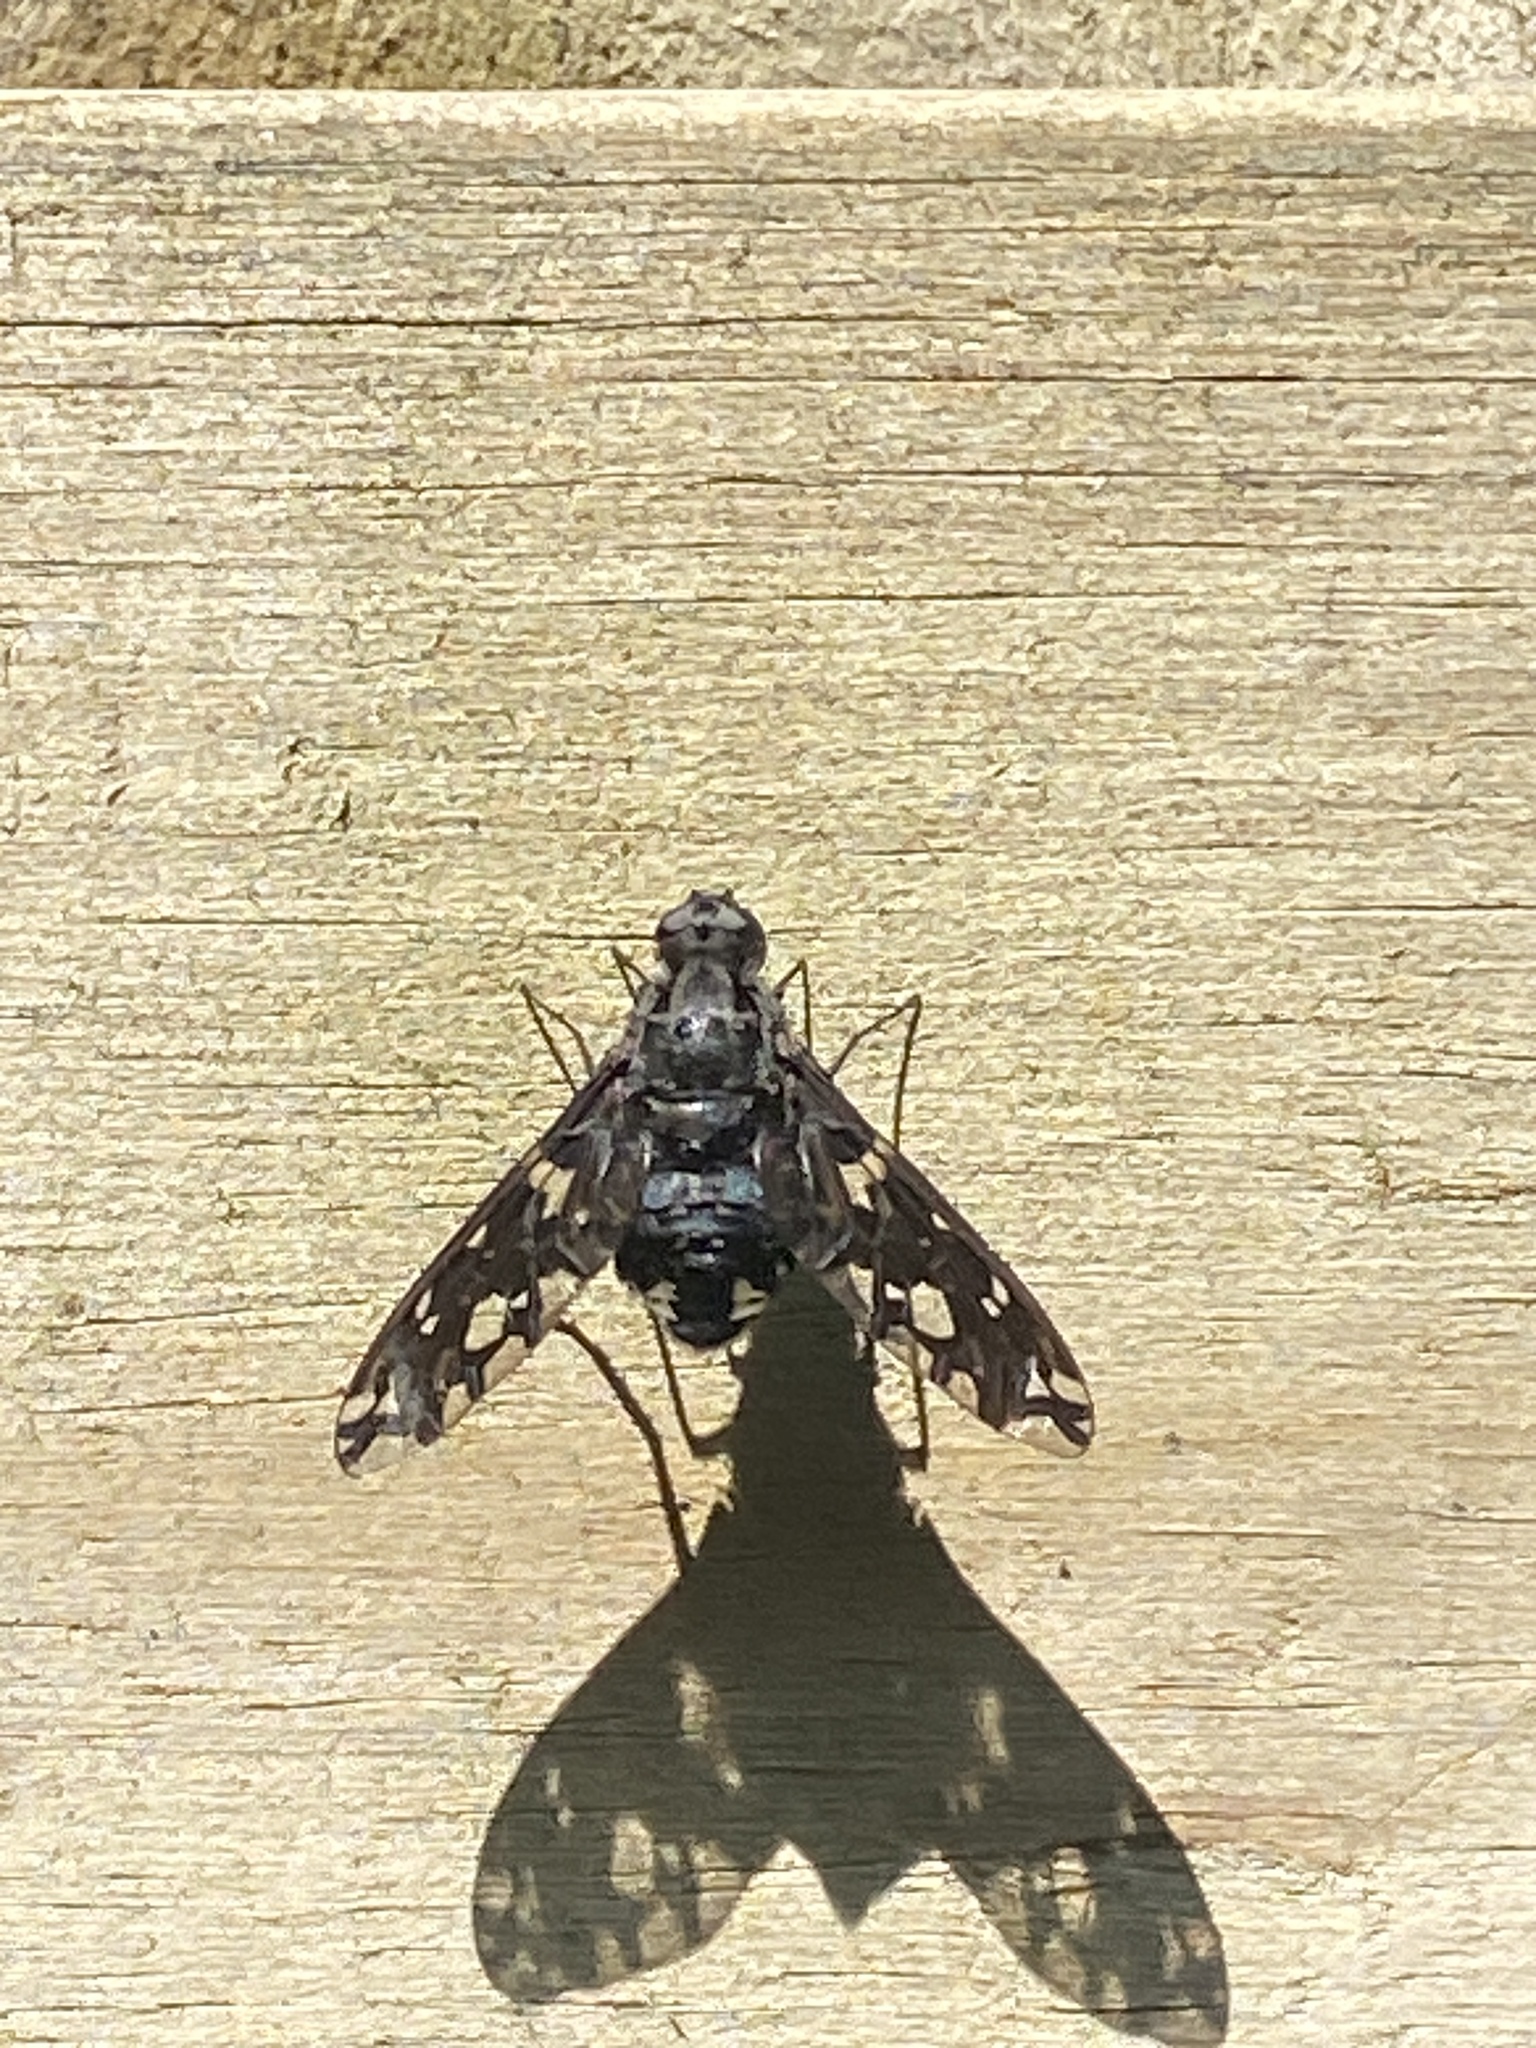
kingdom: Animalia
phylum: Arthropoda
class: Insecta
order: Diptera
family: Bombyliidae
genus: Xenox
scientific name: Xenox tigrinus
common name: Tiger bee fly
